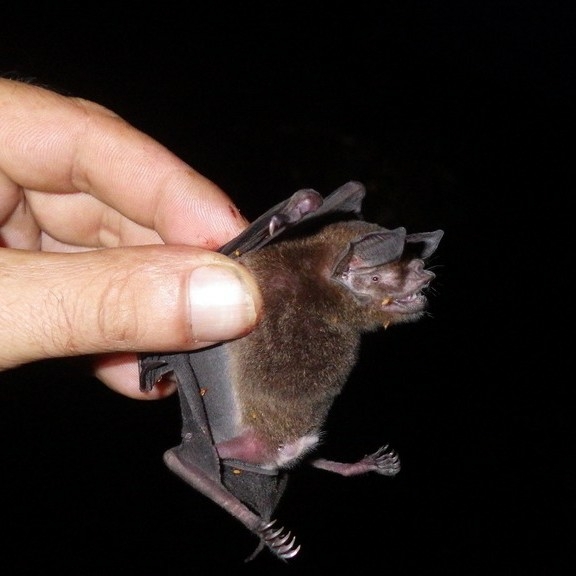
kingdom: Animalia
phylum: Chordata
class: Mammalia
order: Chiroptera
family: Mormoopidae
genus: Pteronotus
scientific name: Pteronotus
